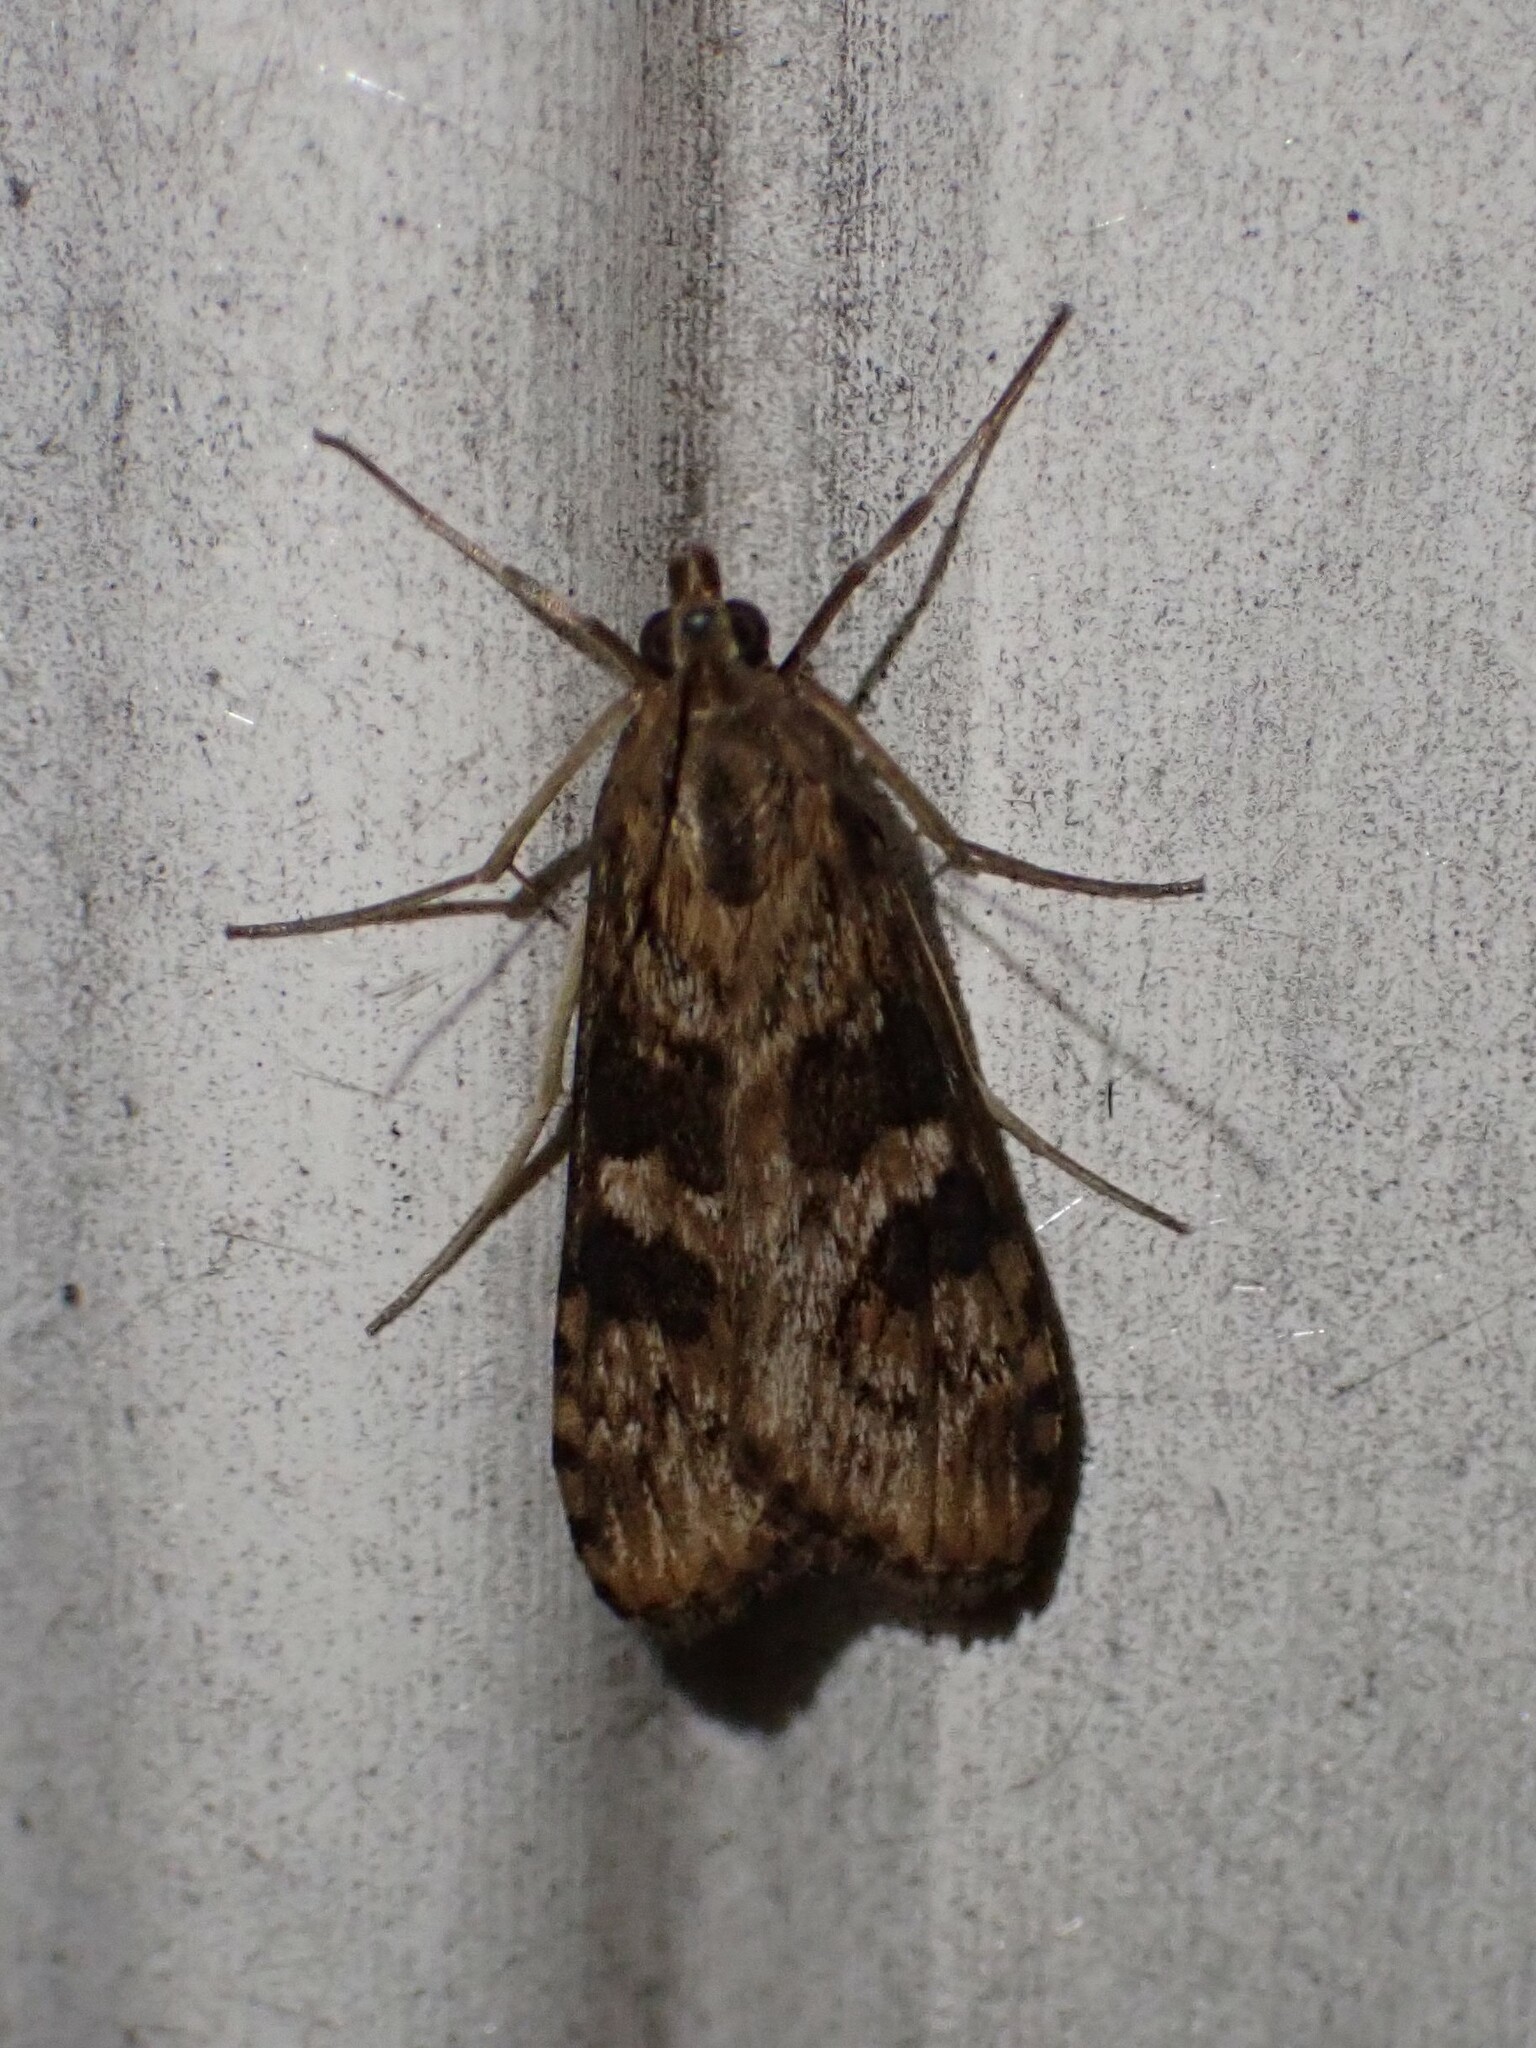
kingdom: Animalia
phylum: Arthropoda
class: Insecta
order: Lepidoptera
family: Crambidae
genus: Nomophila
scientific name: Nomophila nearctica
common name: American rush veneer
